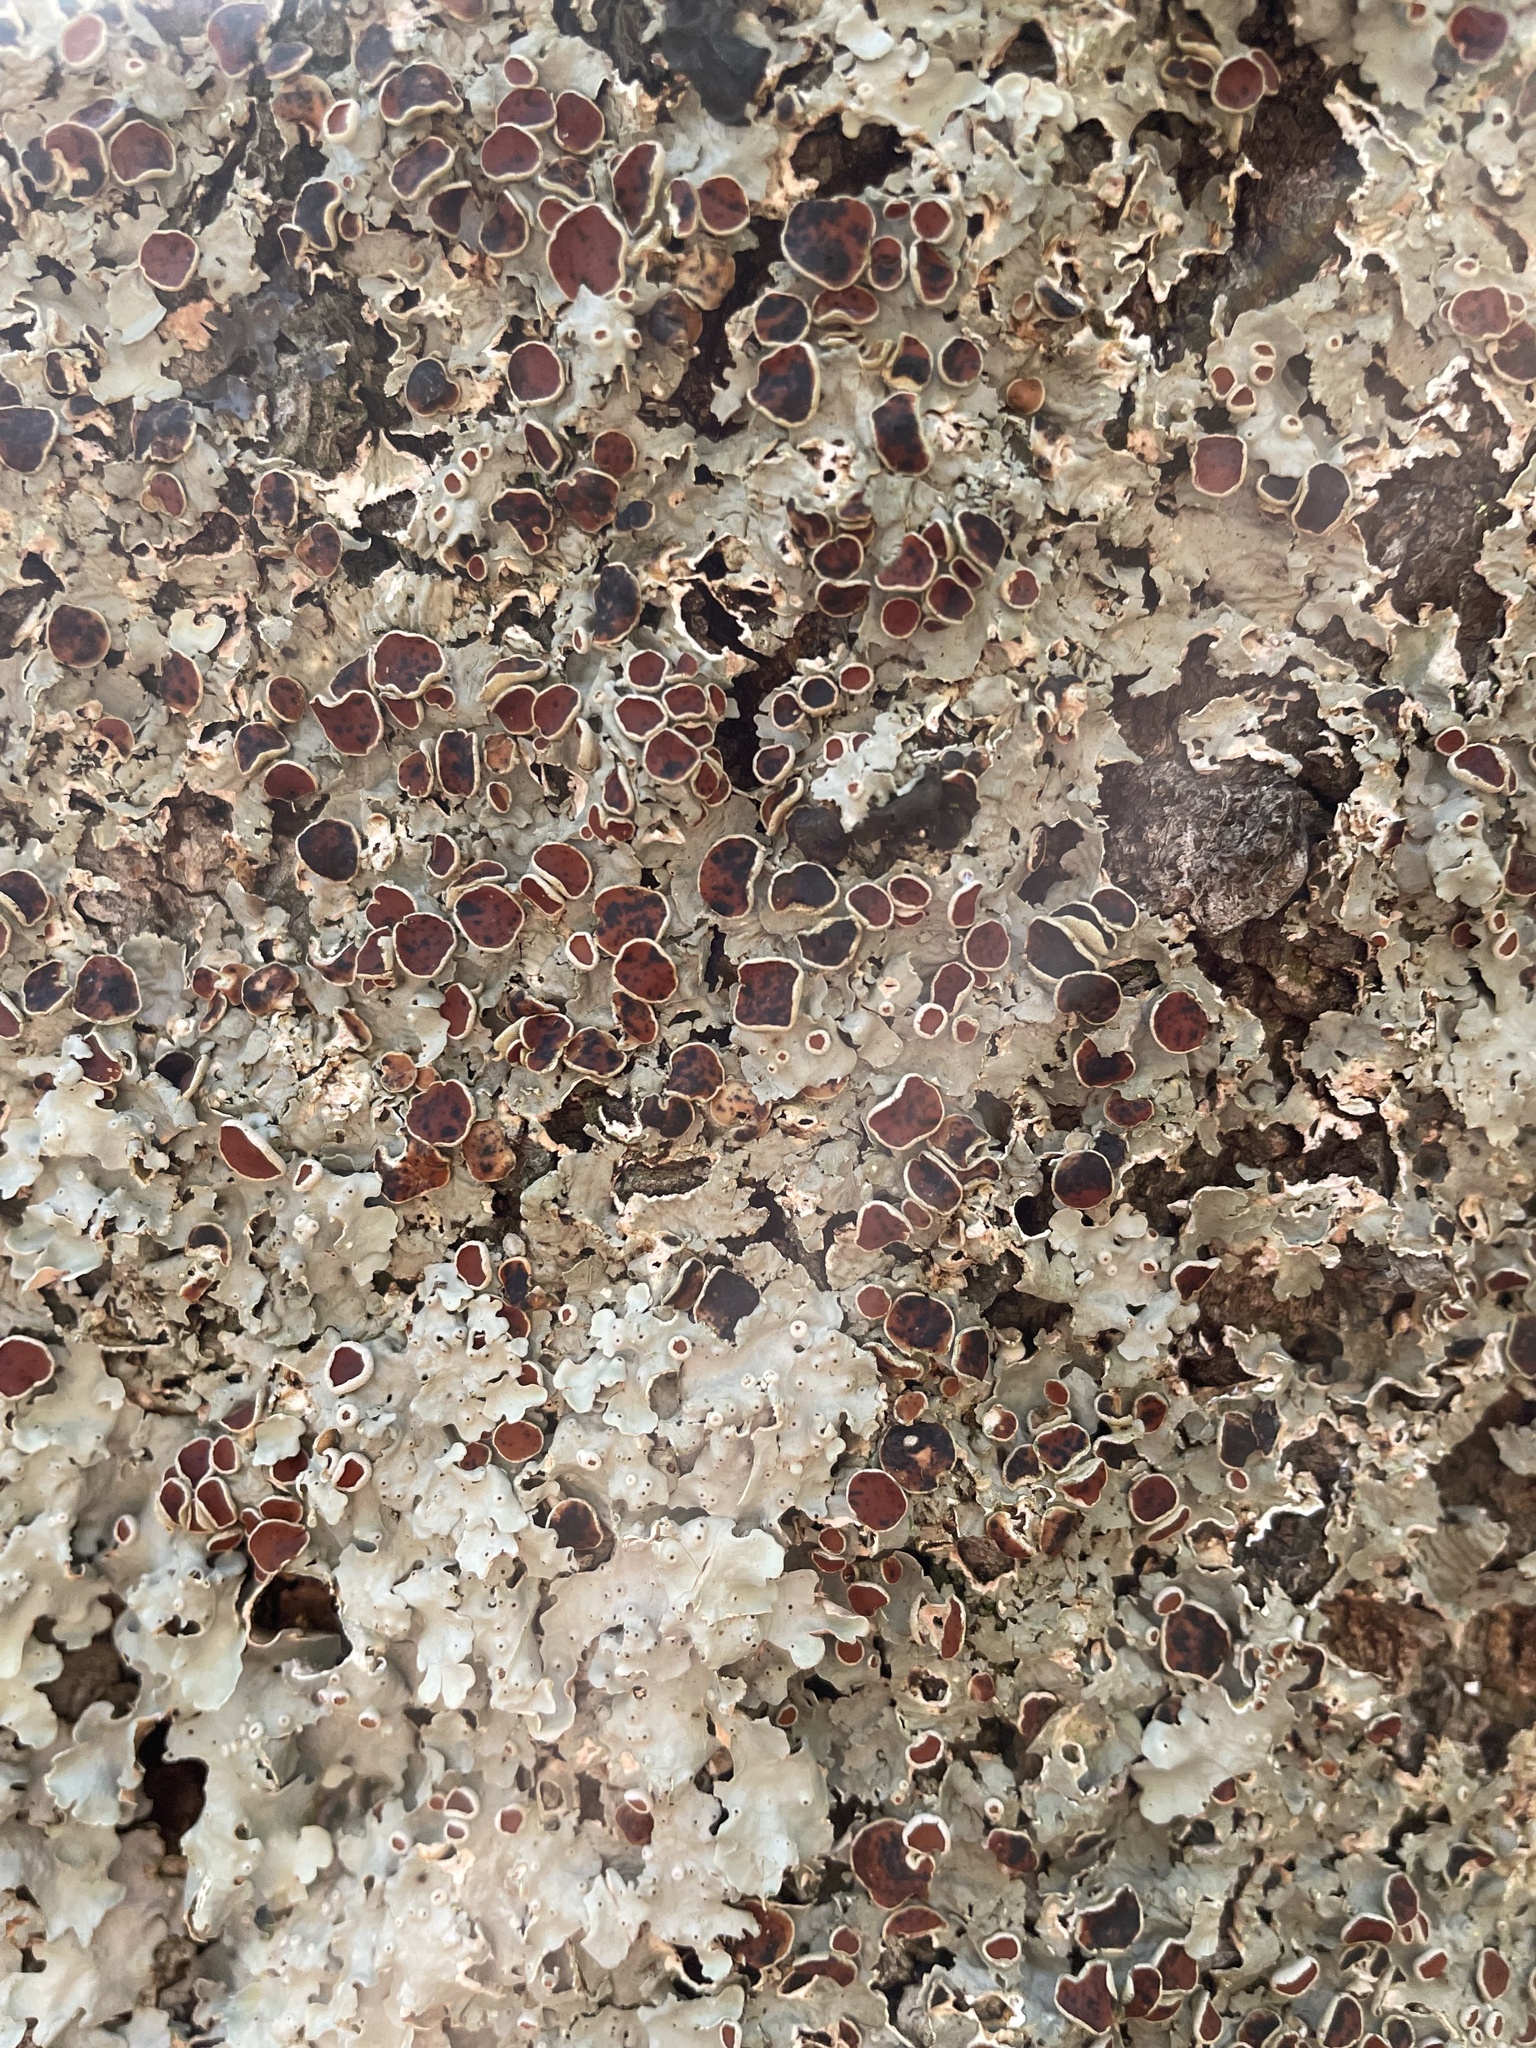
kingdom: Fungi
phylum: Ascomycota
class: Lecanoromycetes
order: Peltigerales
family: Lobariaceae
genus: Ricasolia
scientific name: Ricasolia quercizans
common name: Smooth lungwort
